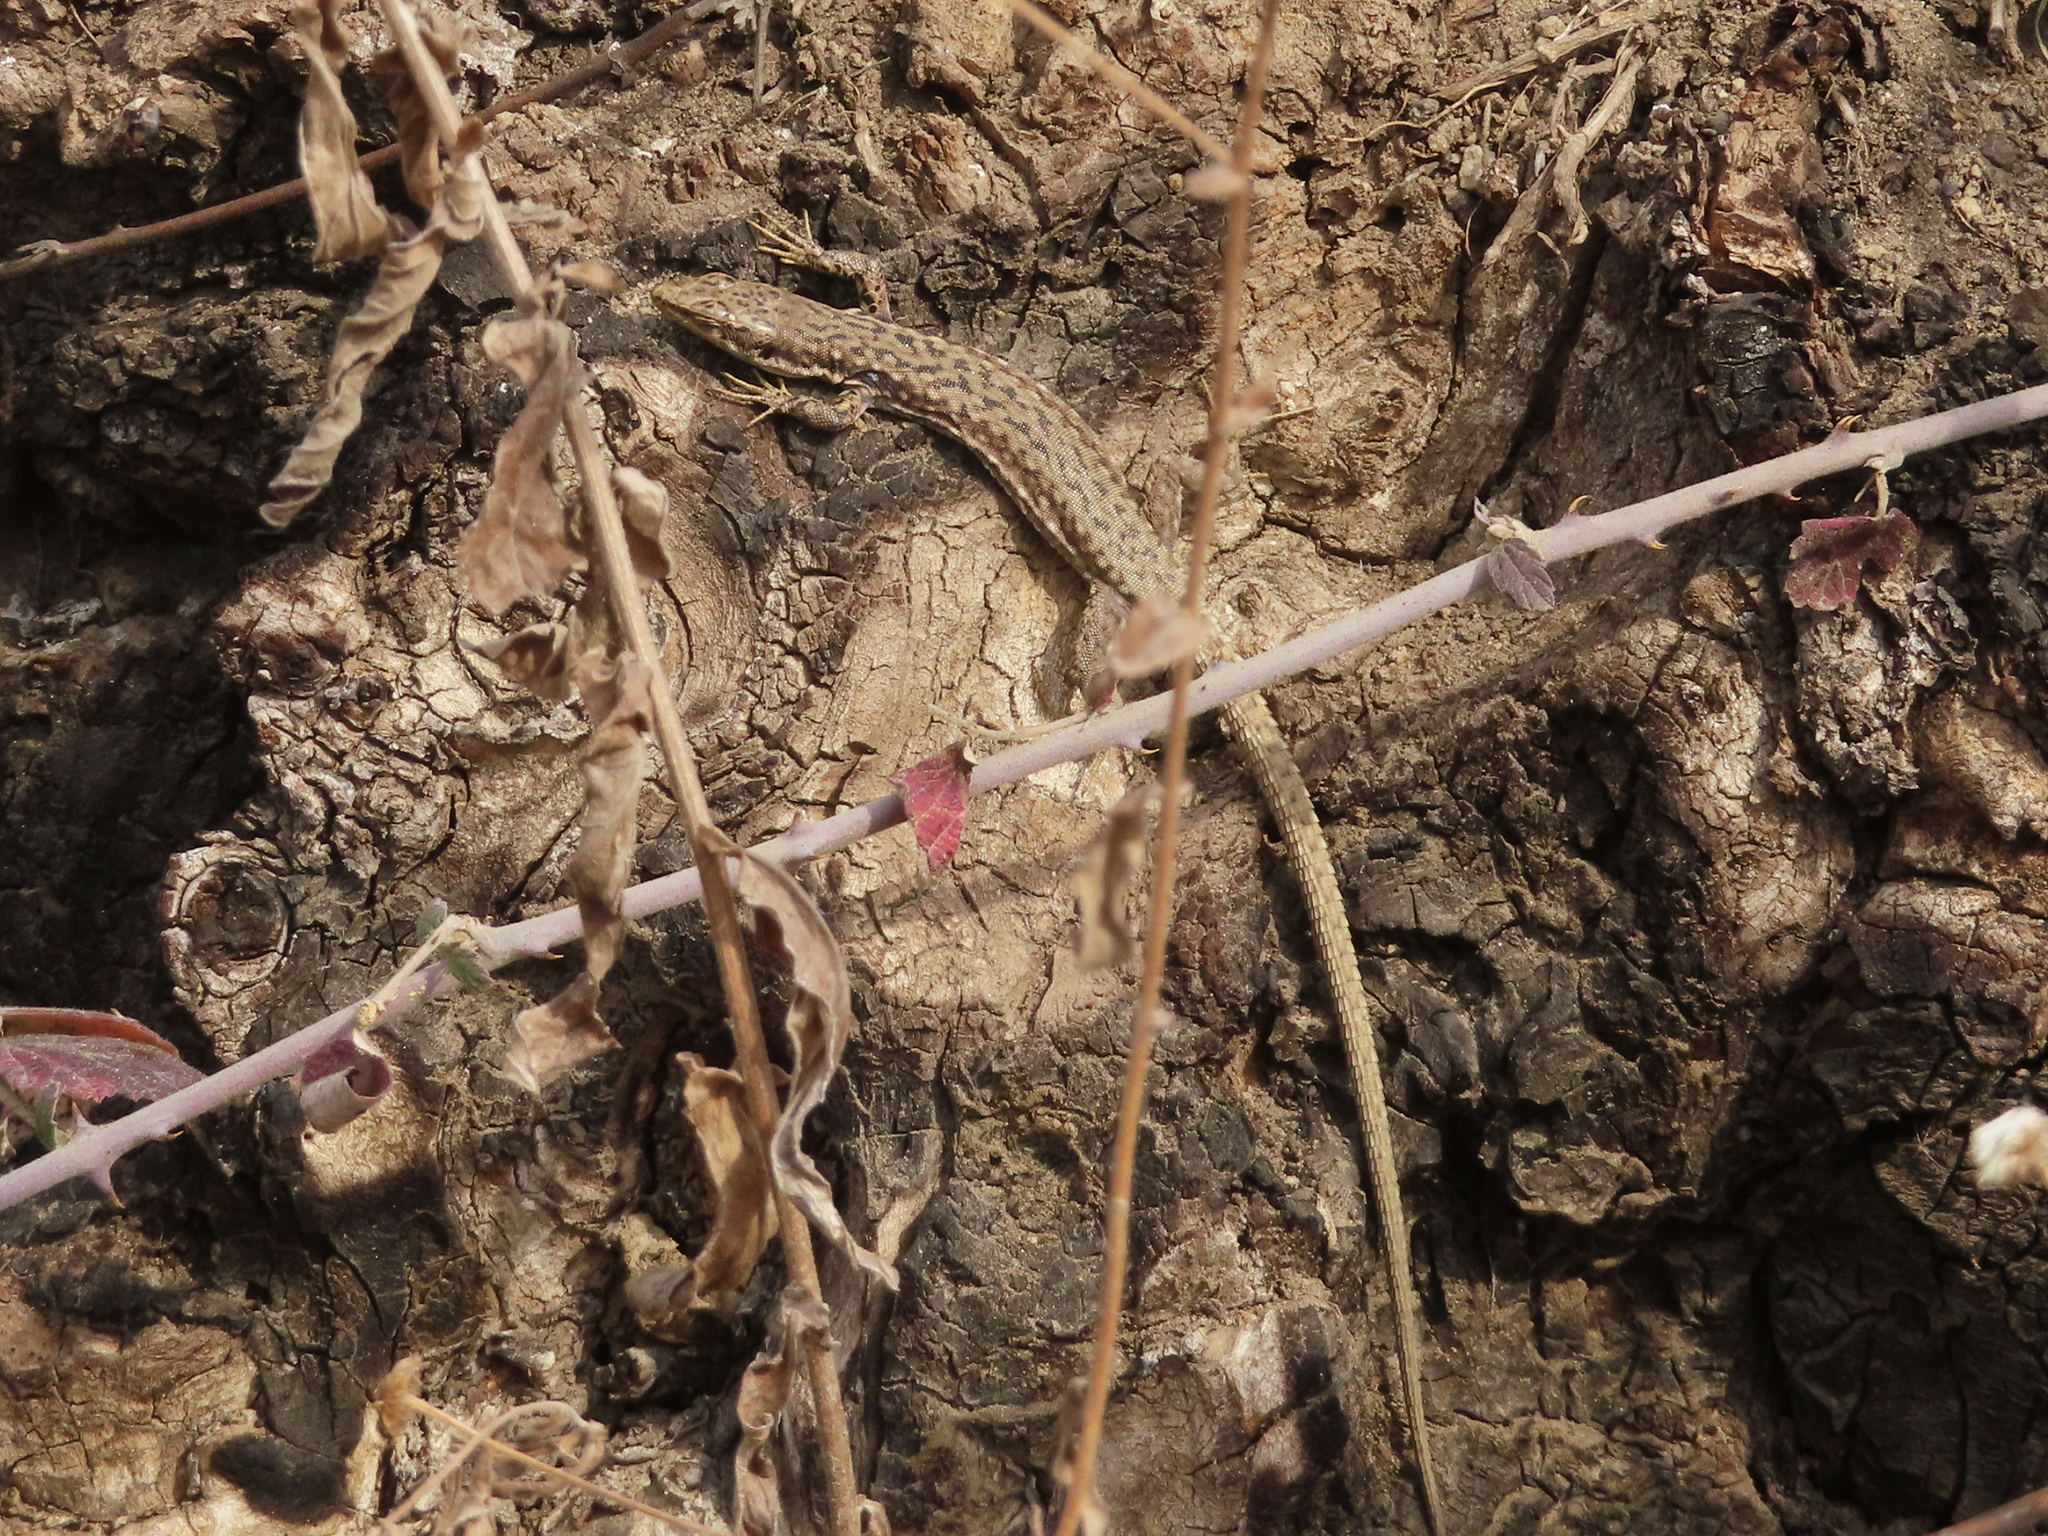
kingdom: Animalia
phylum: Chordata
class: Squamata
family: Lacertidae
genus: Darevskia
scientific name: Darevskia raddei
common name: Radde's lizard
